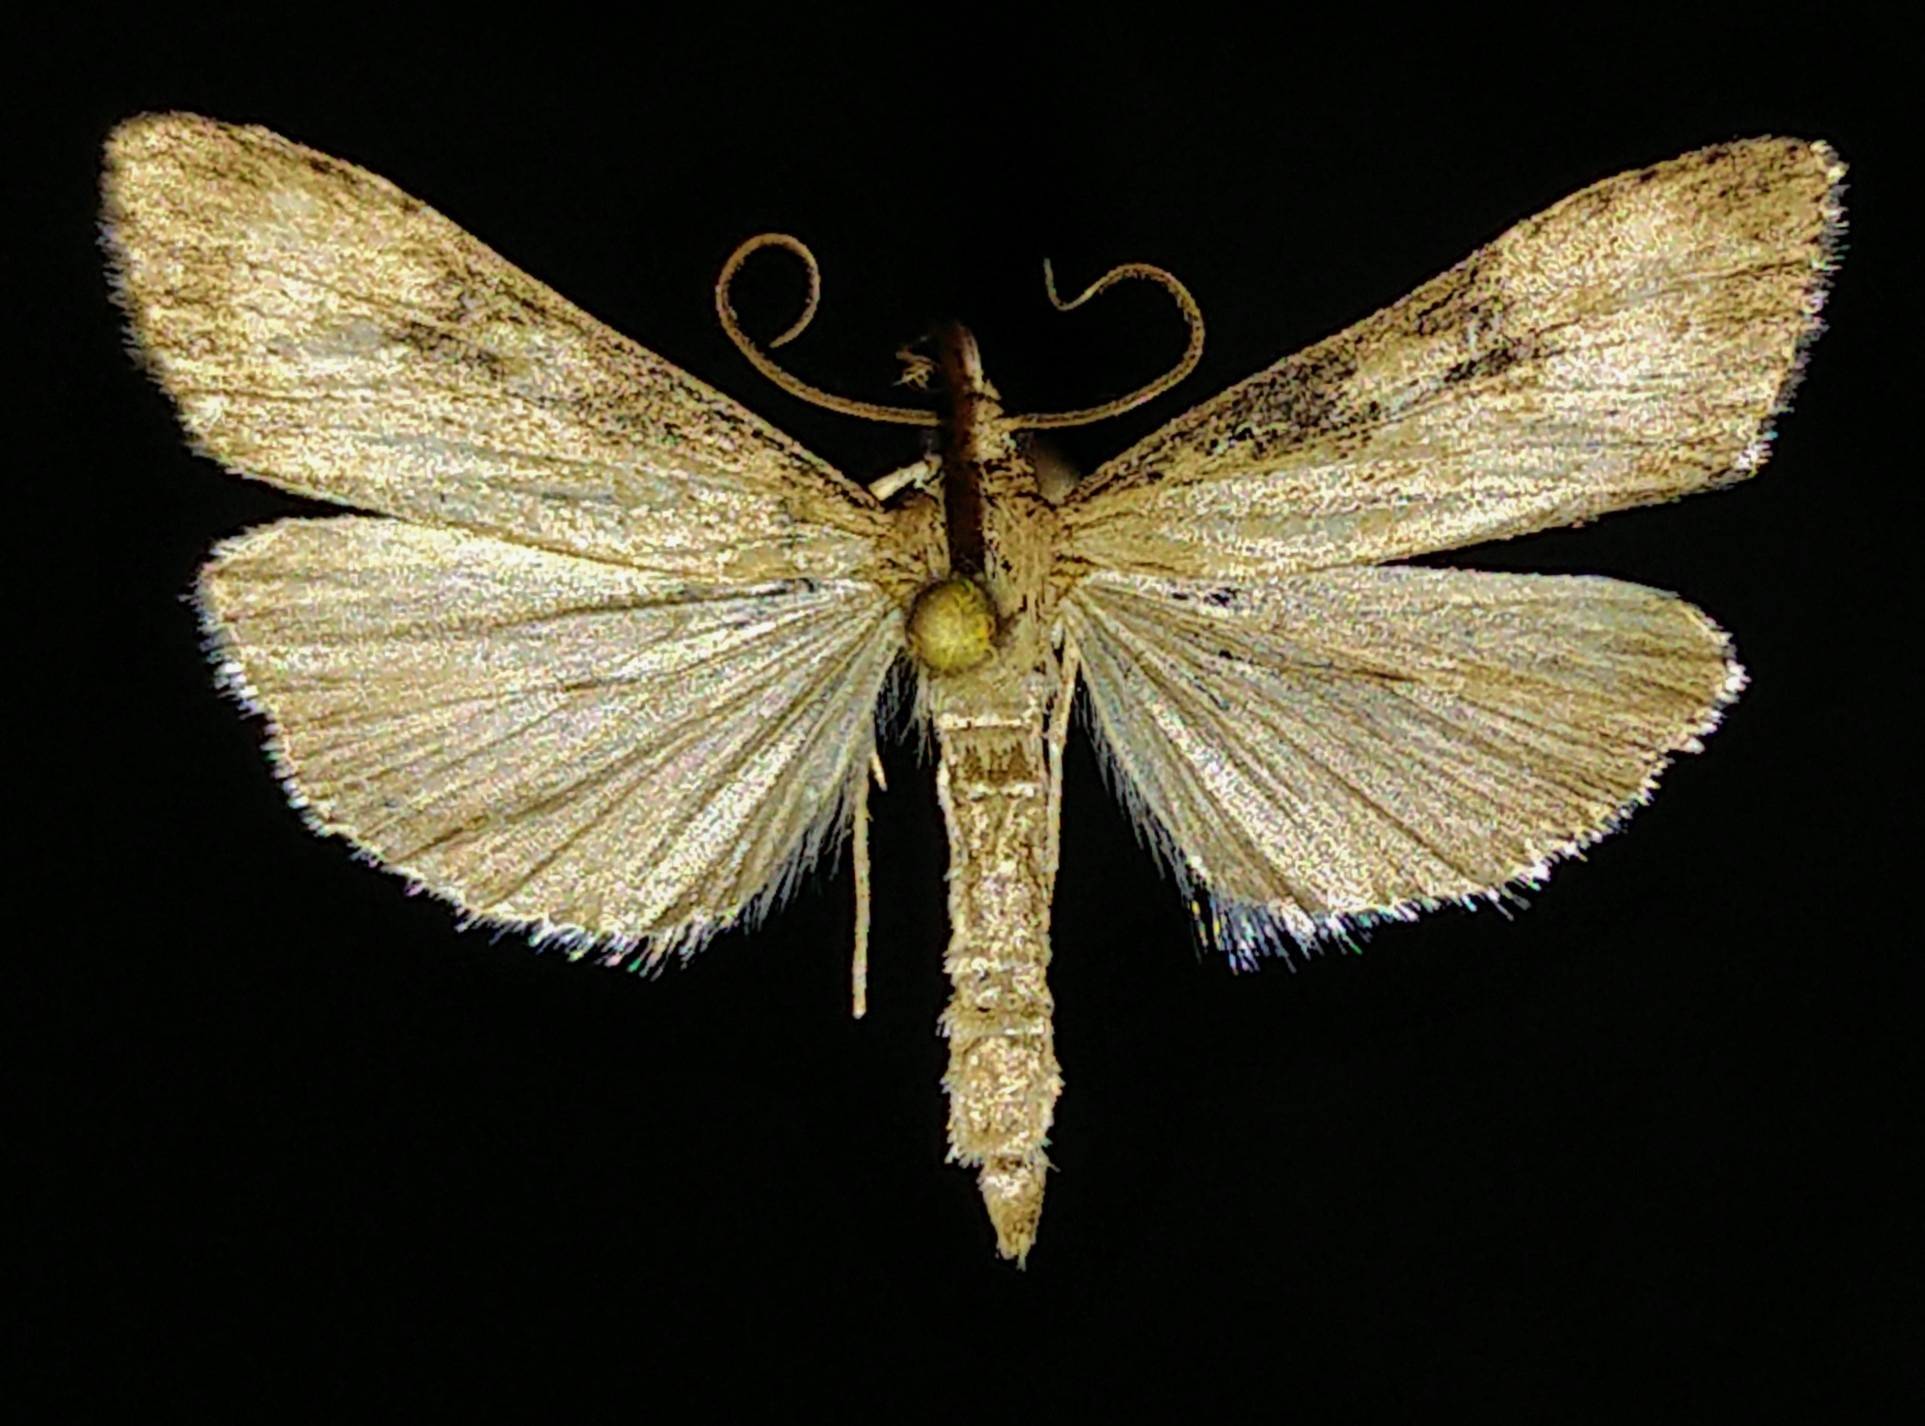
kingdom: Animalia
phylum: Arthropoda
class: Insecta
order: Lepidoptera
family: Crambidae
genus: Udea
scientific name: Udea itysalis
